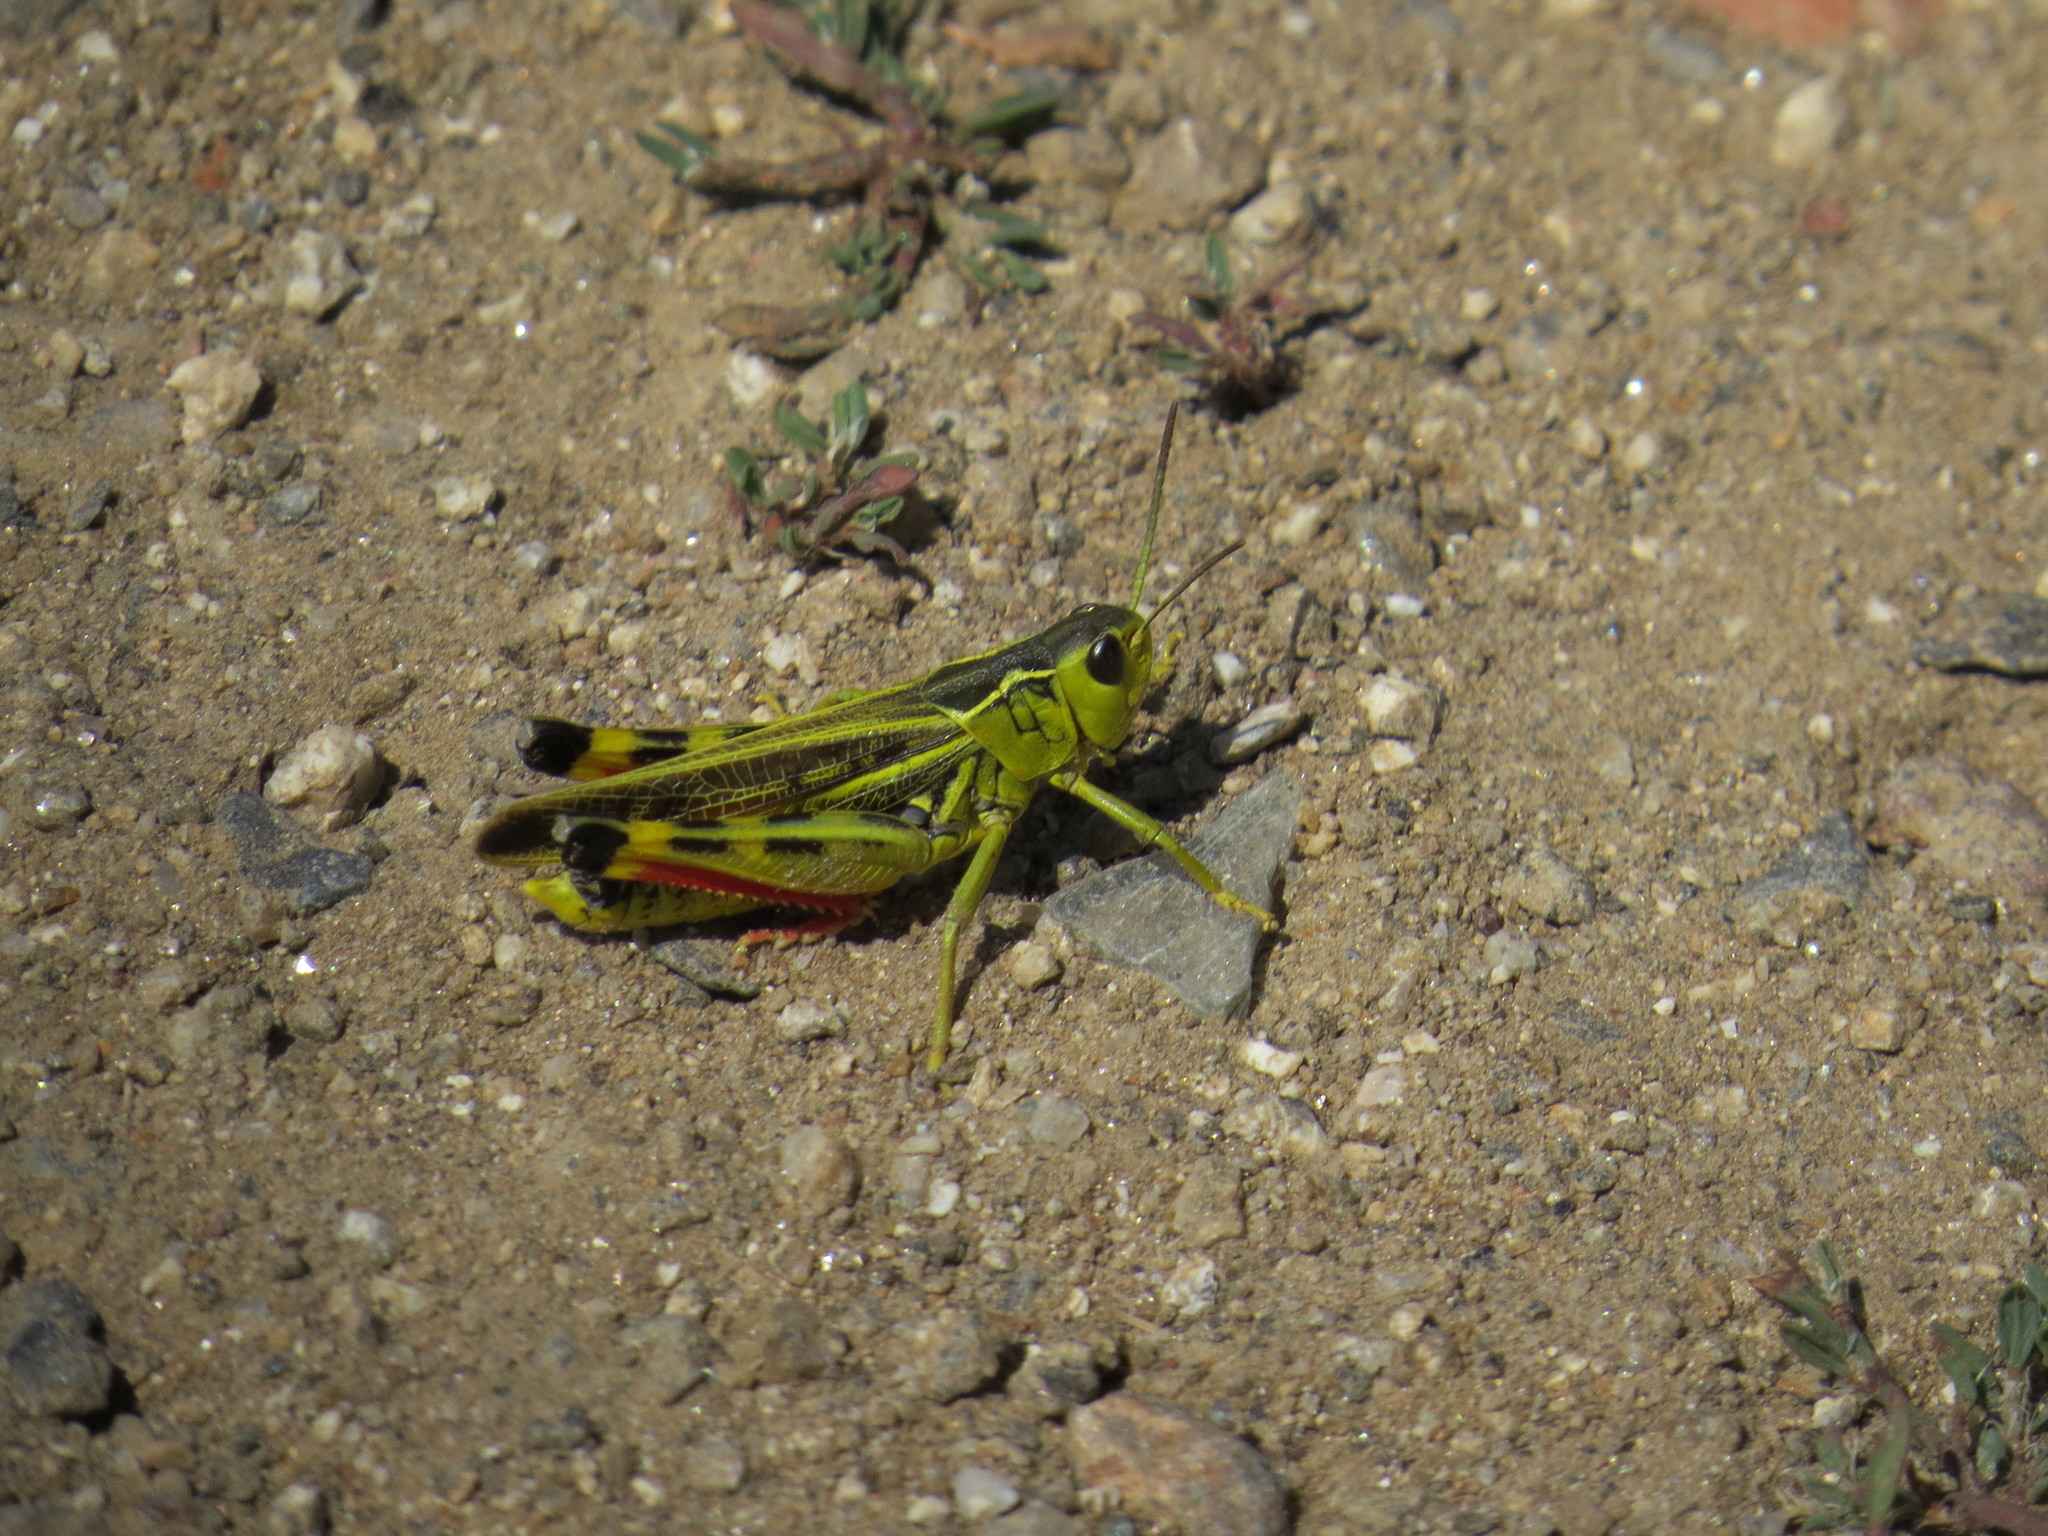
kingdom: Animalia
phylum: Arthropoda
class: Insecta
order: Orthoptera
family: Acrididae
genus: Arcyptera
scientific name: Arcyptera tornosi
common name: Iberian banded grasshopper
